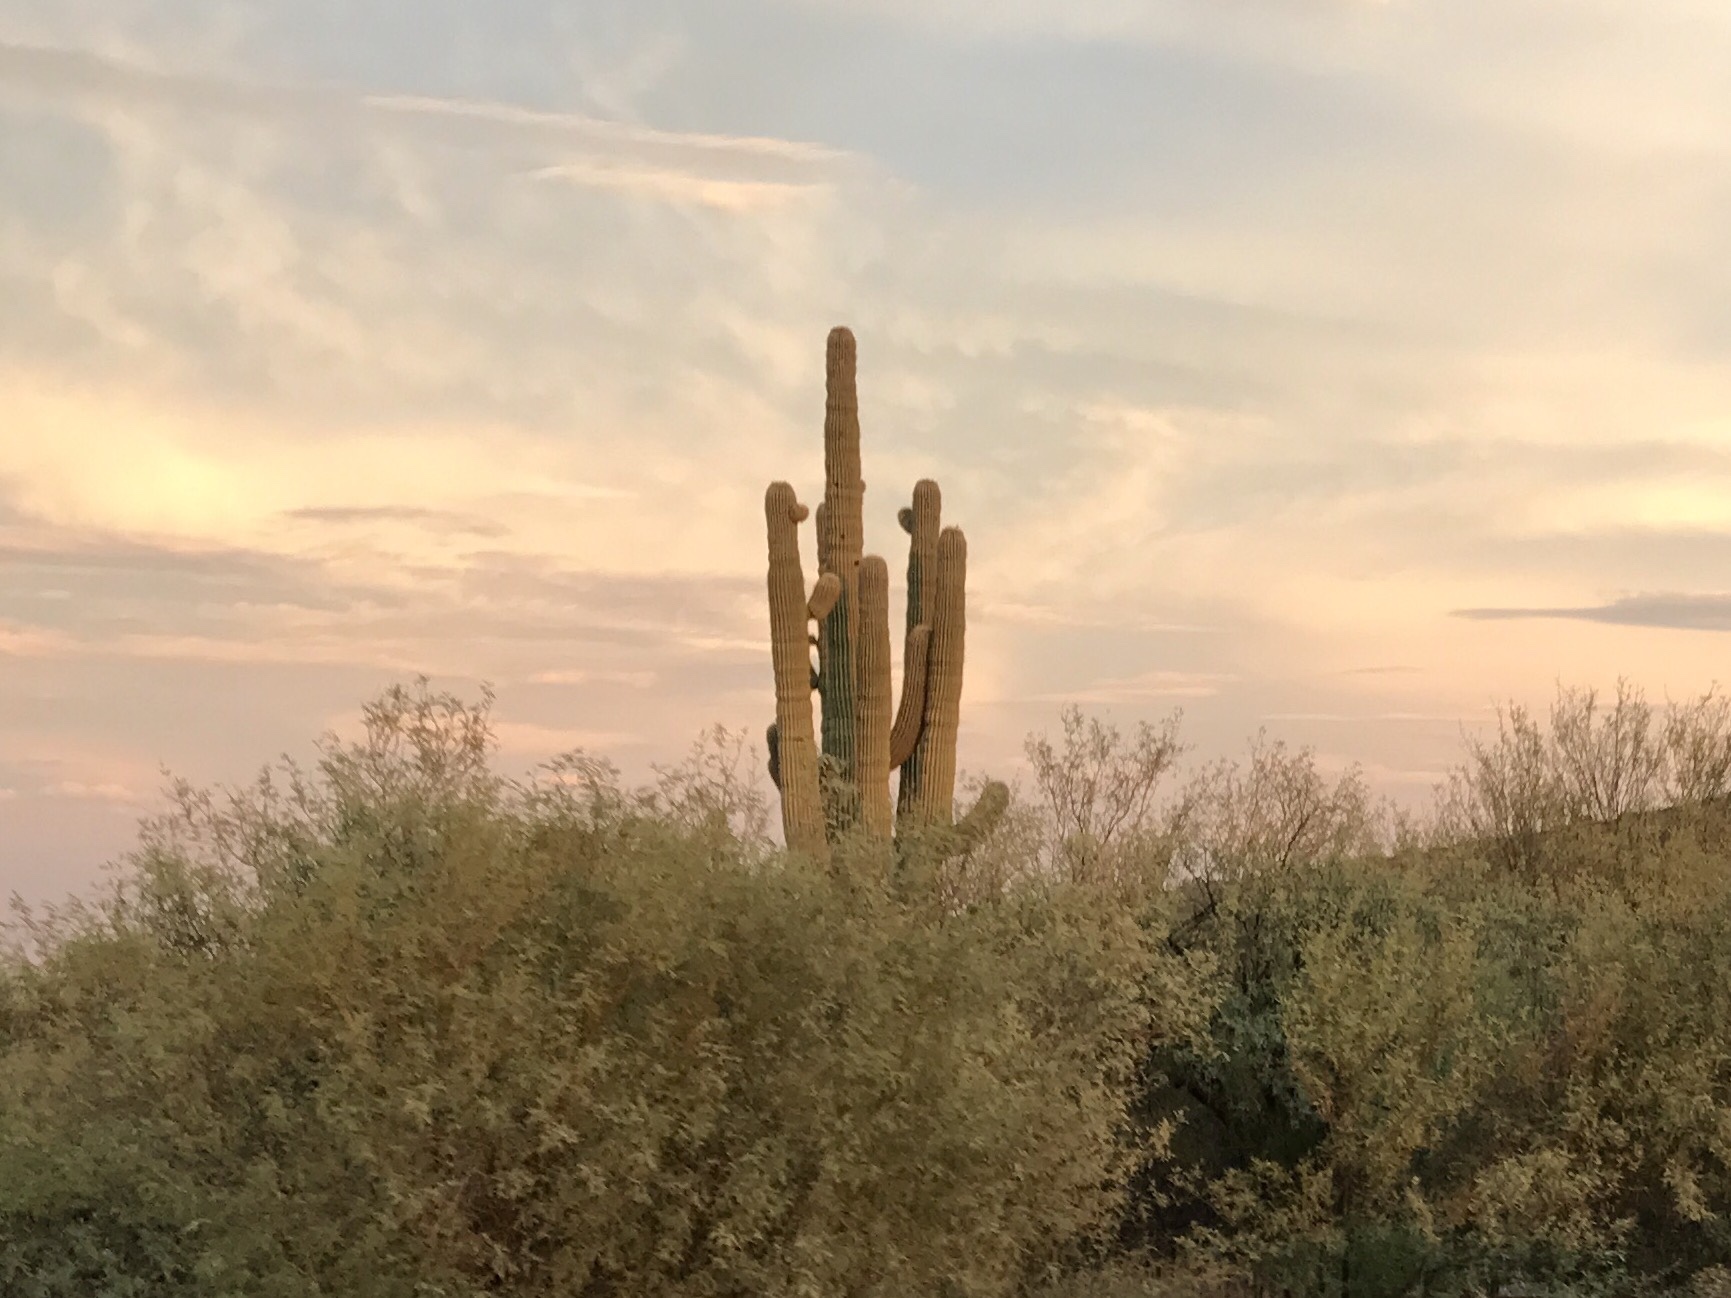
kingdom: Plantae
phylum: Tracheophyta
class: Magnoliopsida
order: Caryophyllales
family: Cactaceae
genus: Carnegiea
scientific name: Carnegiea gigantea
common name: Saguaro
